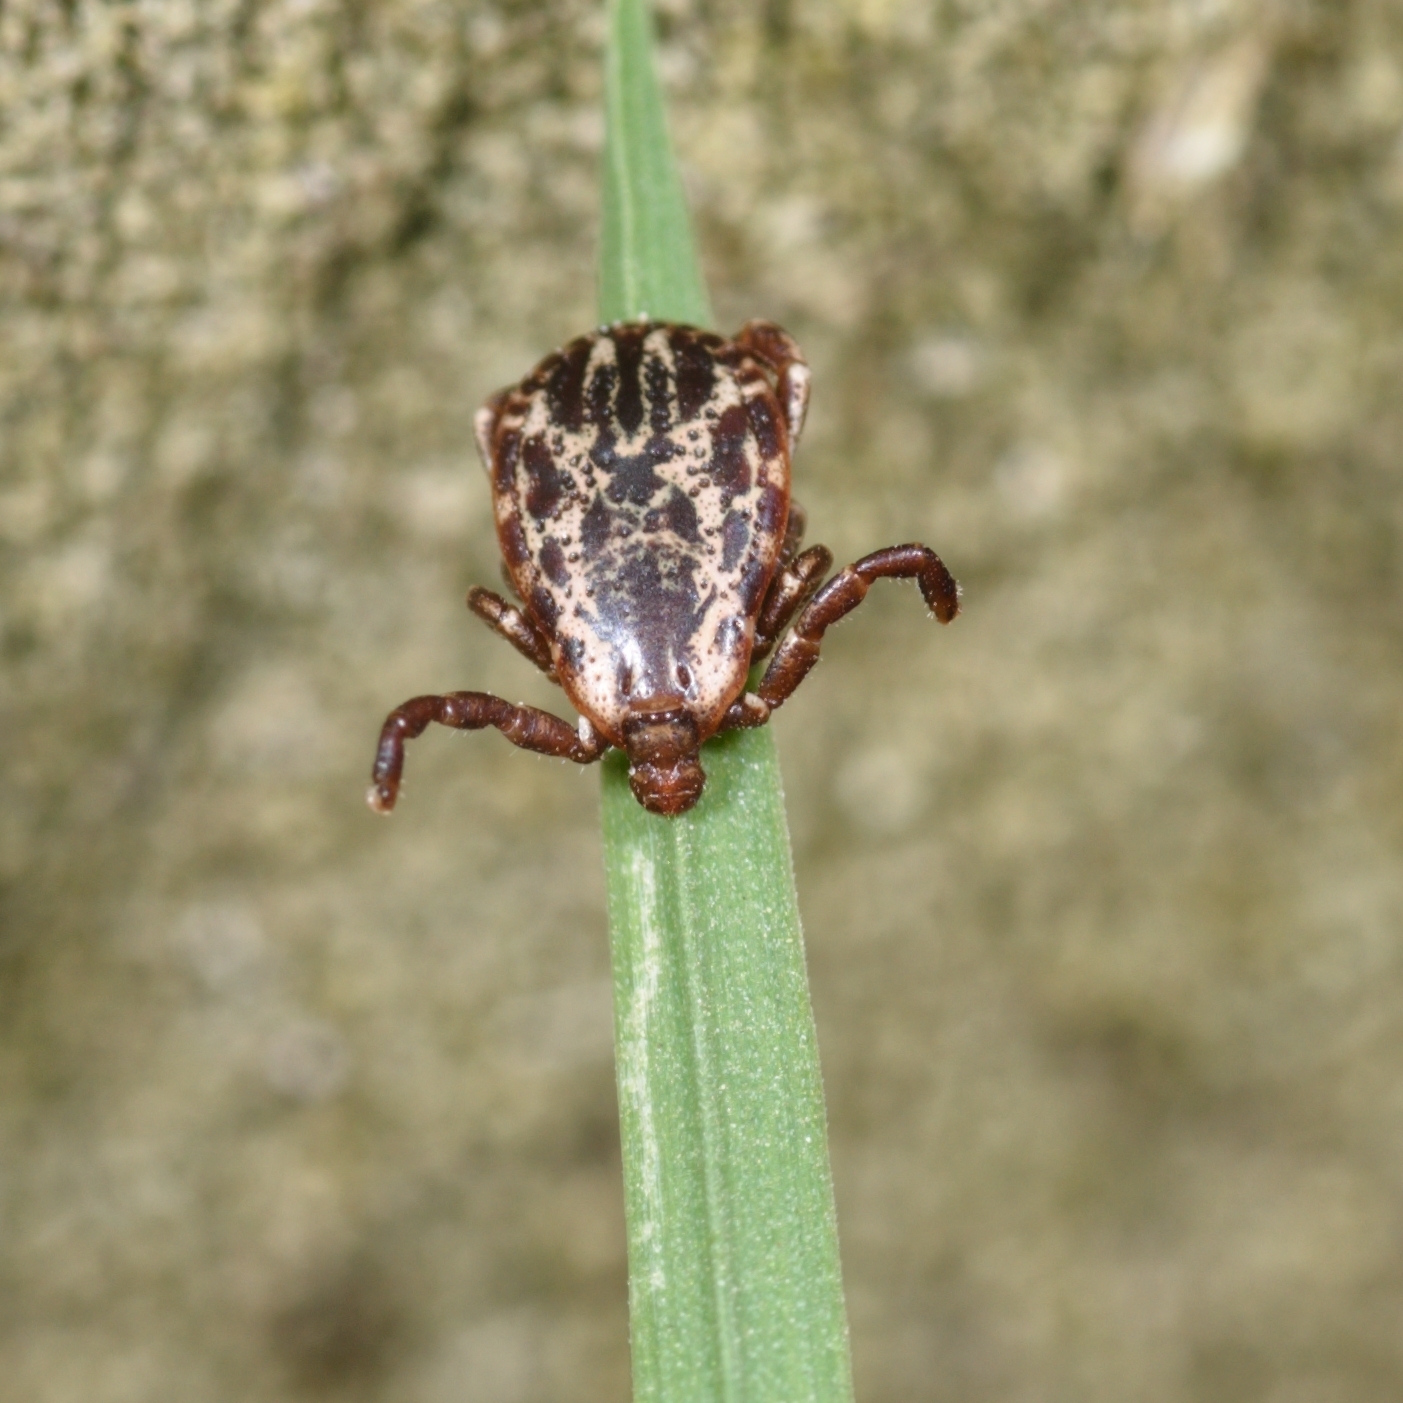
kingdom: Animalia
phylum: Arthropoda
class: Arachnida
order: Ixodida
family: Ixodidae
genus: Dermacentor
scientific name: Dermacentor variabilis
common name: American dog tick
